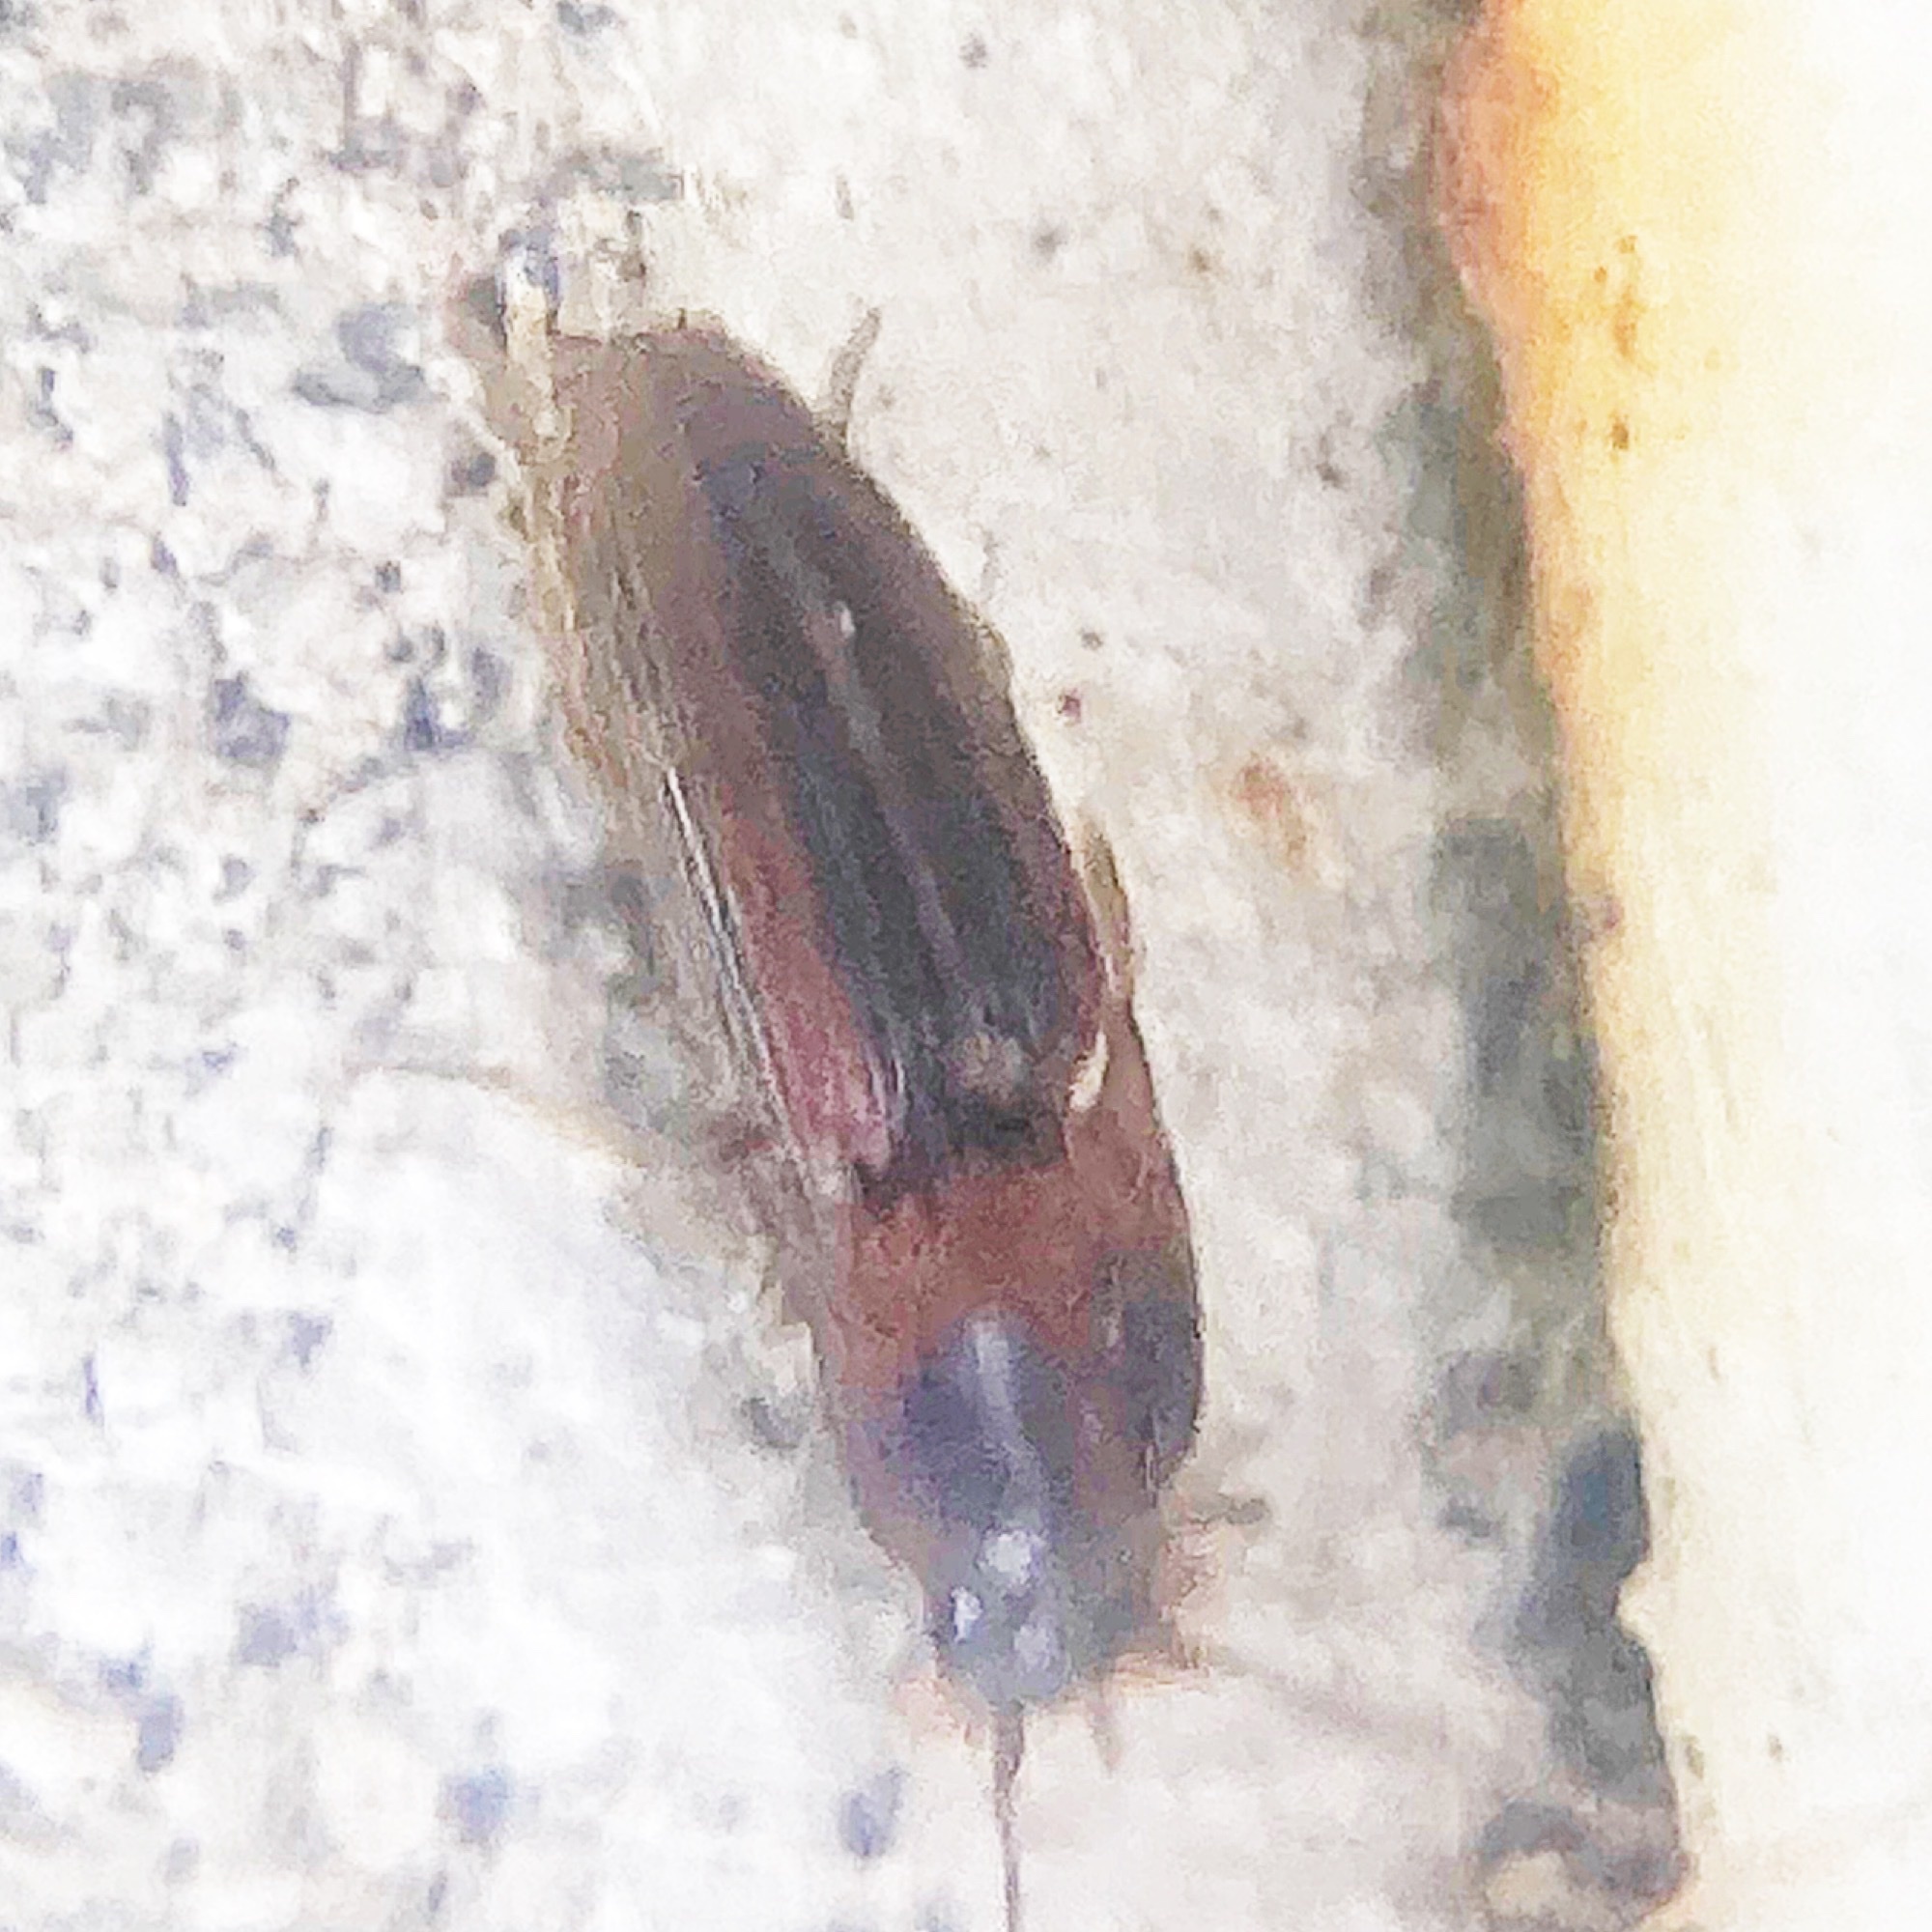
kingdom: Animalia
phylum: Arthropoda
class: Insecta
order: Coleoptera
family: Elateridae
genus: Monocrepidius
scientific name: Monocrepidius
